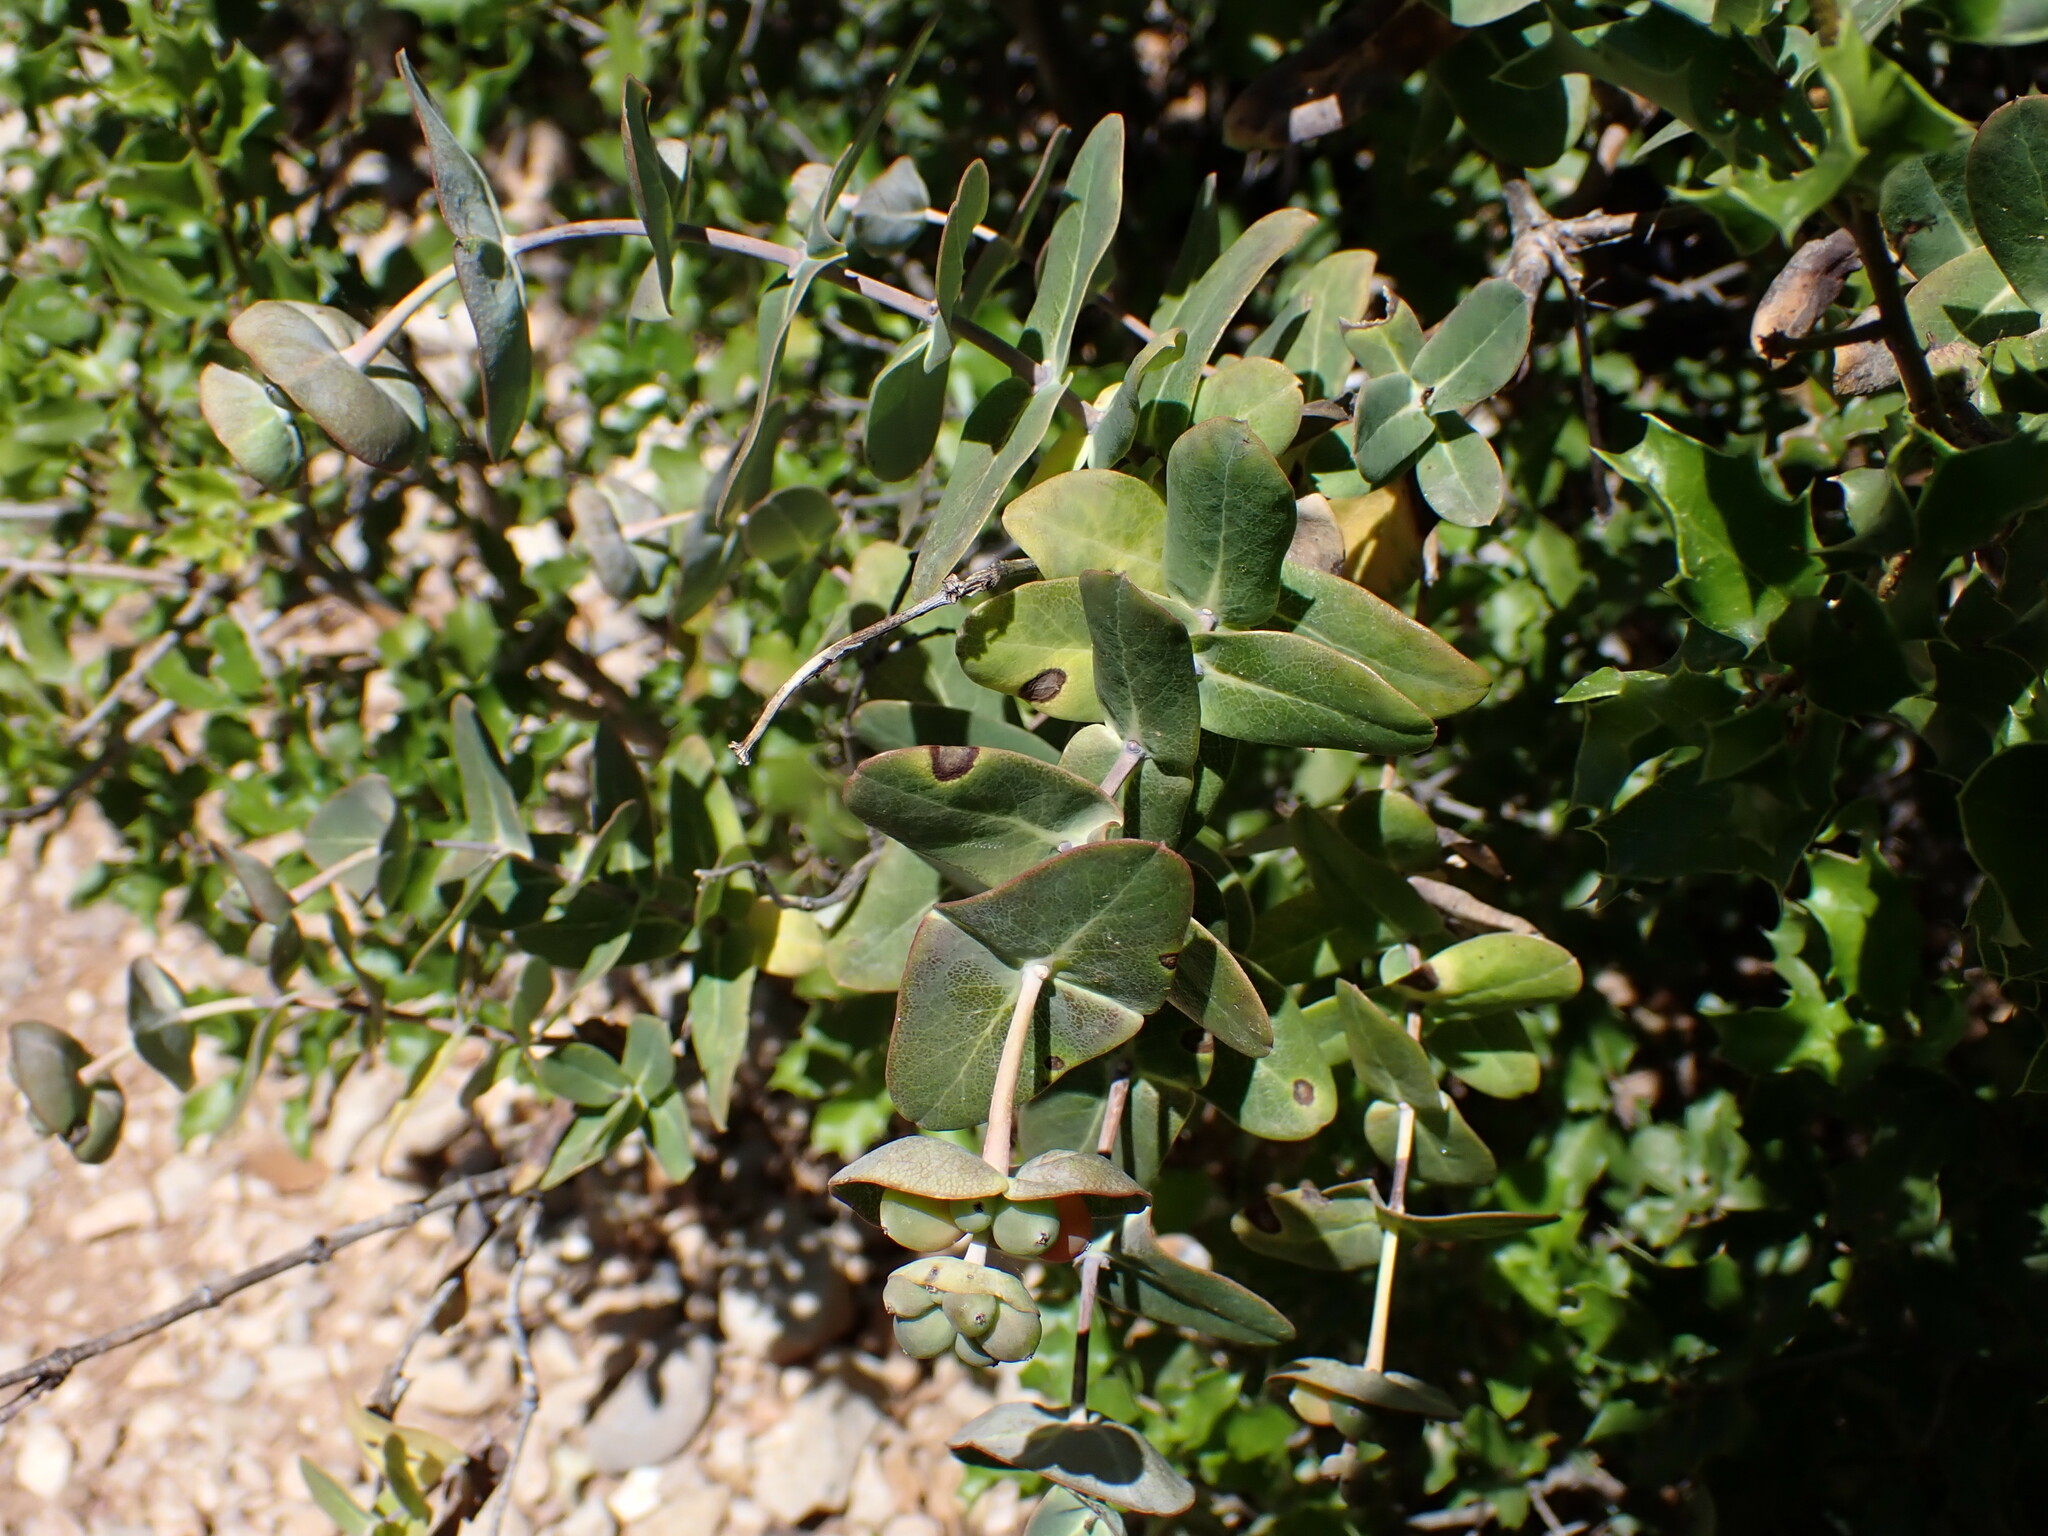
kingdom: Plantae
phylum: Tracheophyta
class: Magnoliopsida
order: Dipsacales
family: Caprifoliaceae
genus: Lonicera
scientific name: Lonicera implexa
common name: Minorca honeysuckle
